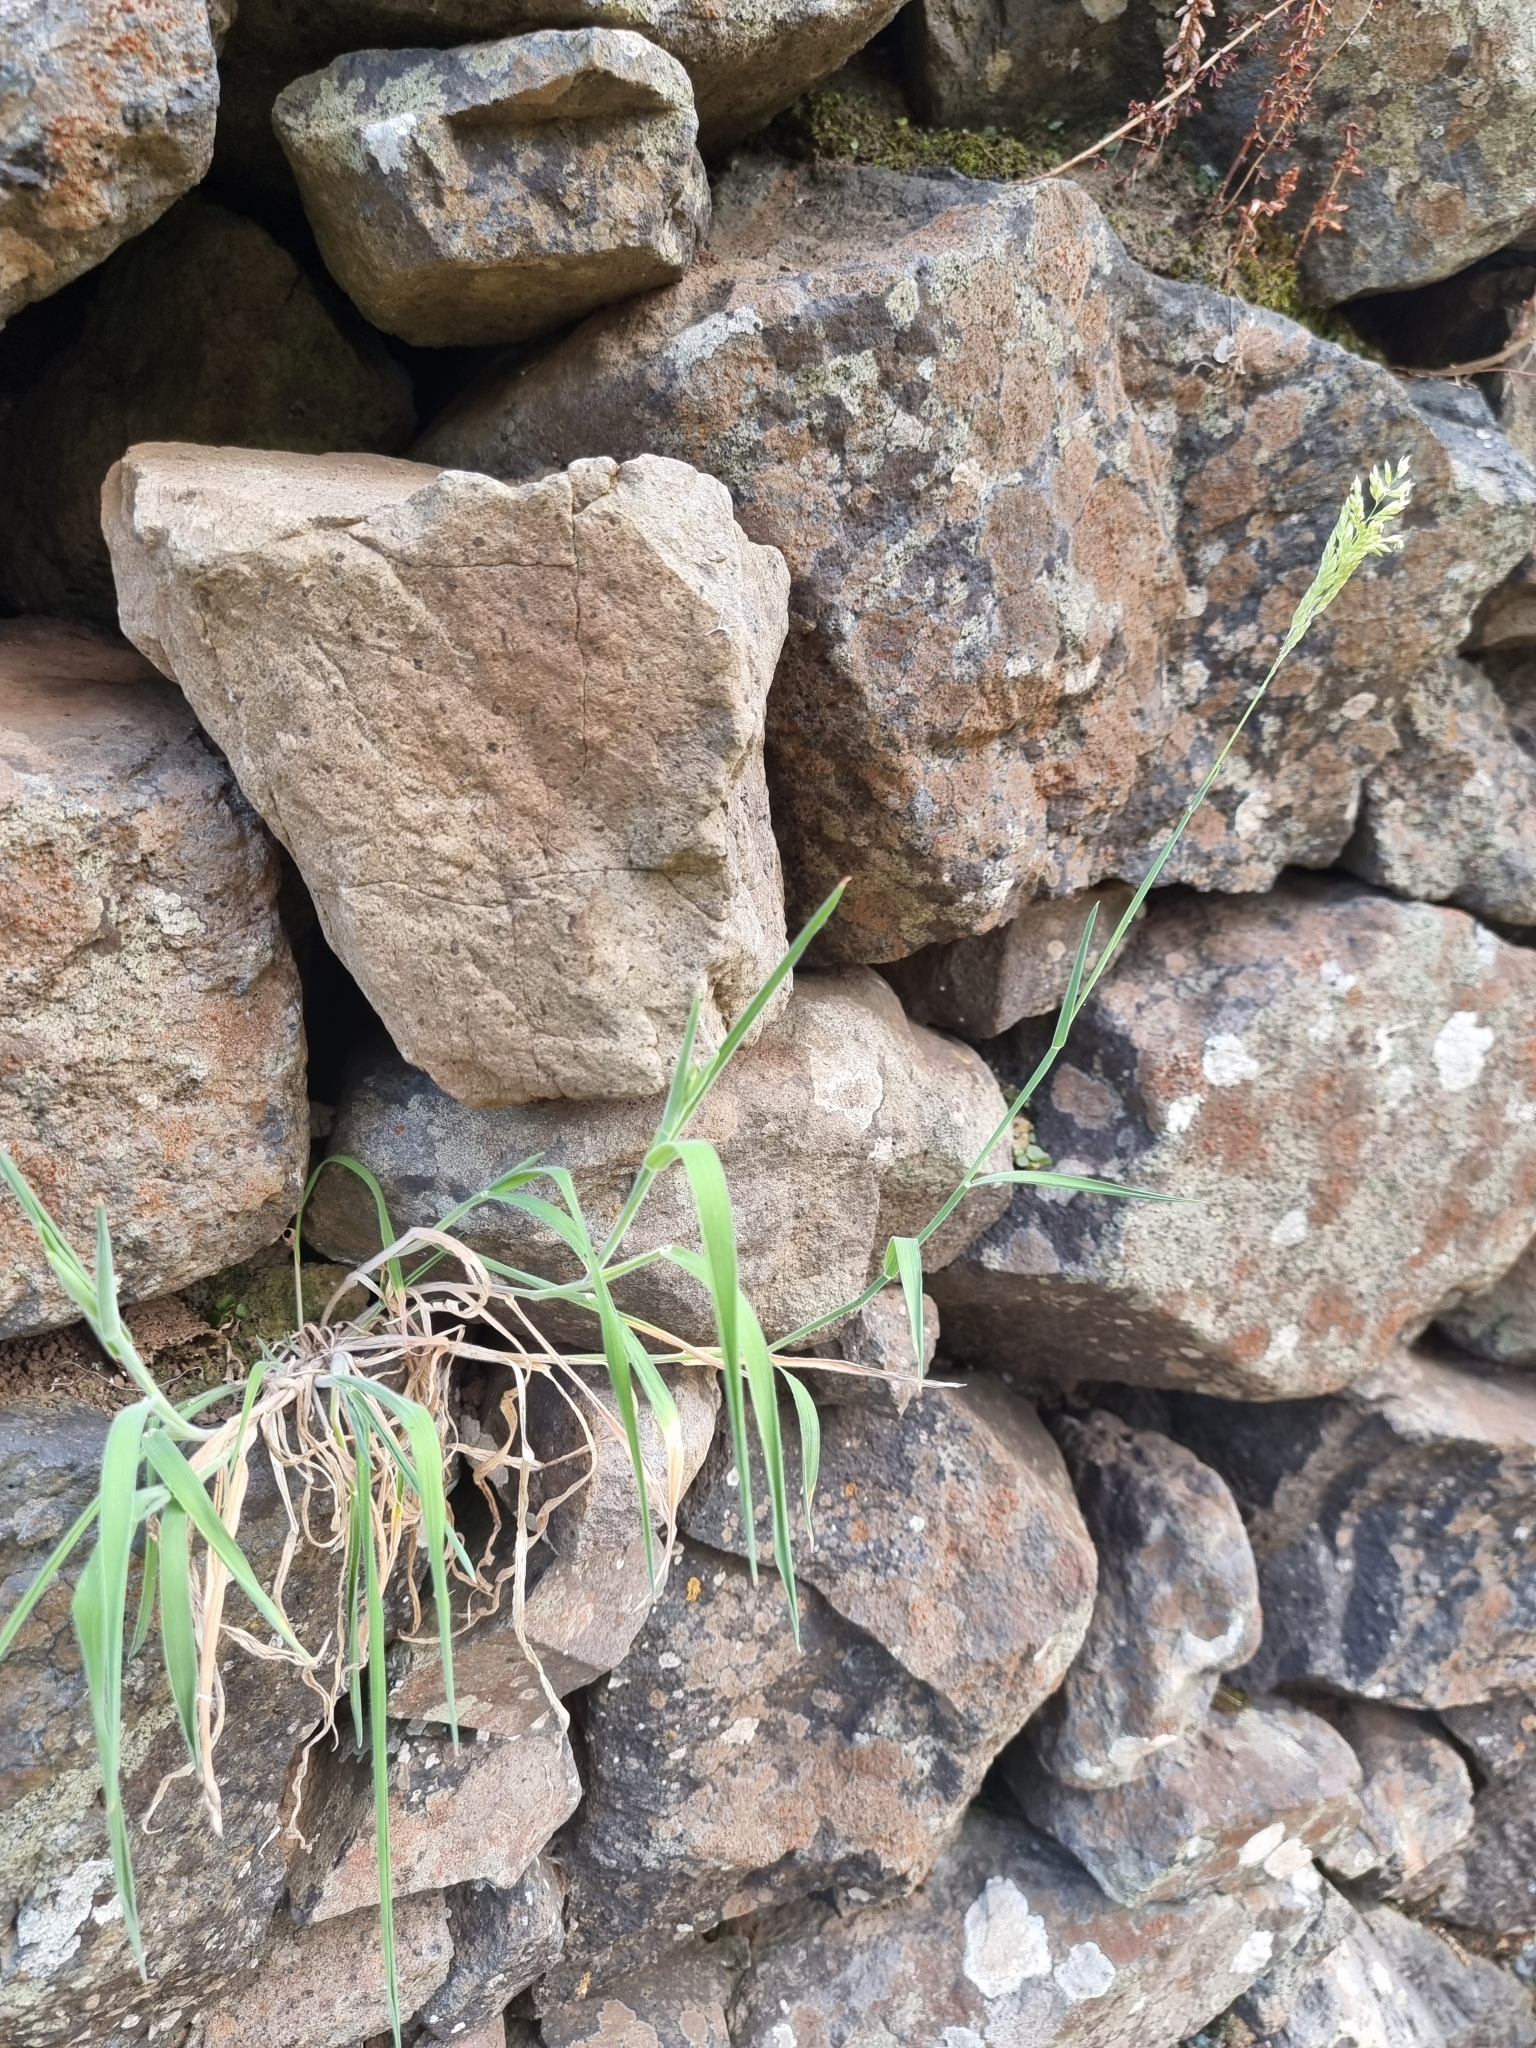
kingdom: Plantae
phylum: Tracheophyta
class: Liliopsida
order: Poales
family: Poaceae
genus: Holcus
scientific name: Holcus lanatus
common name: Yorkshire-fog
